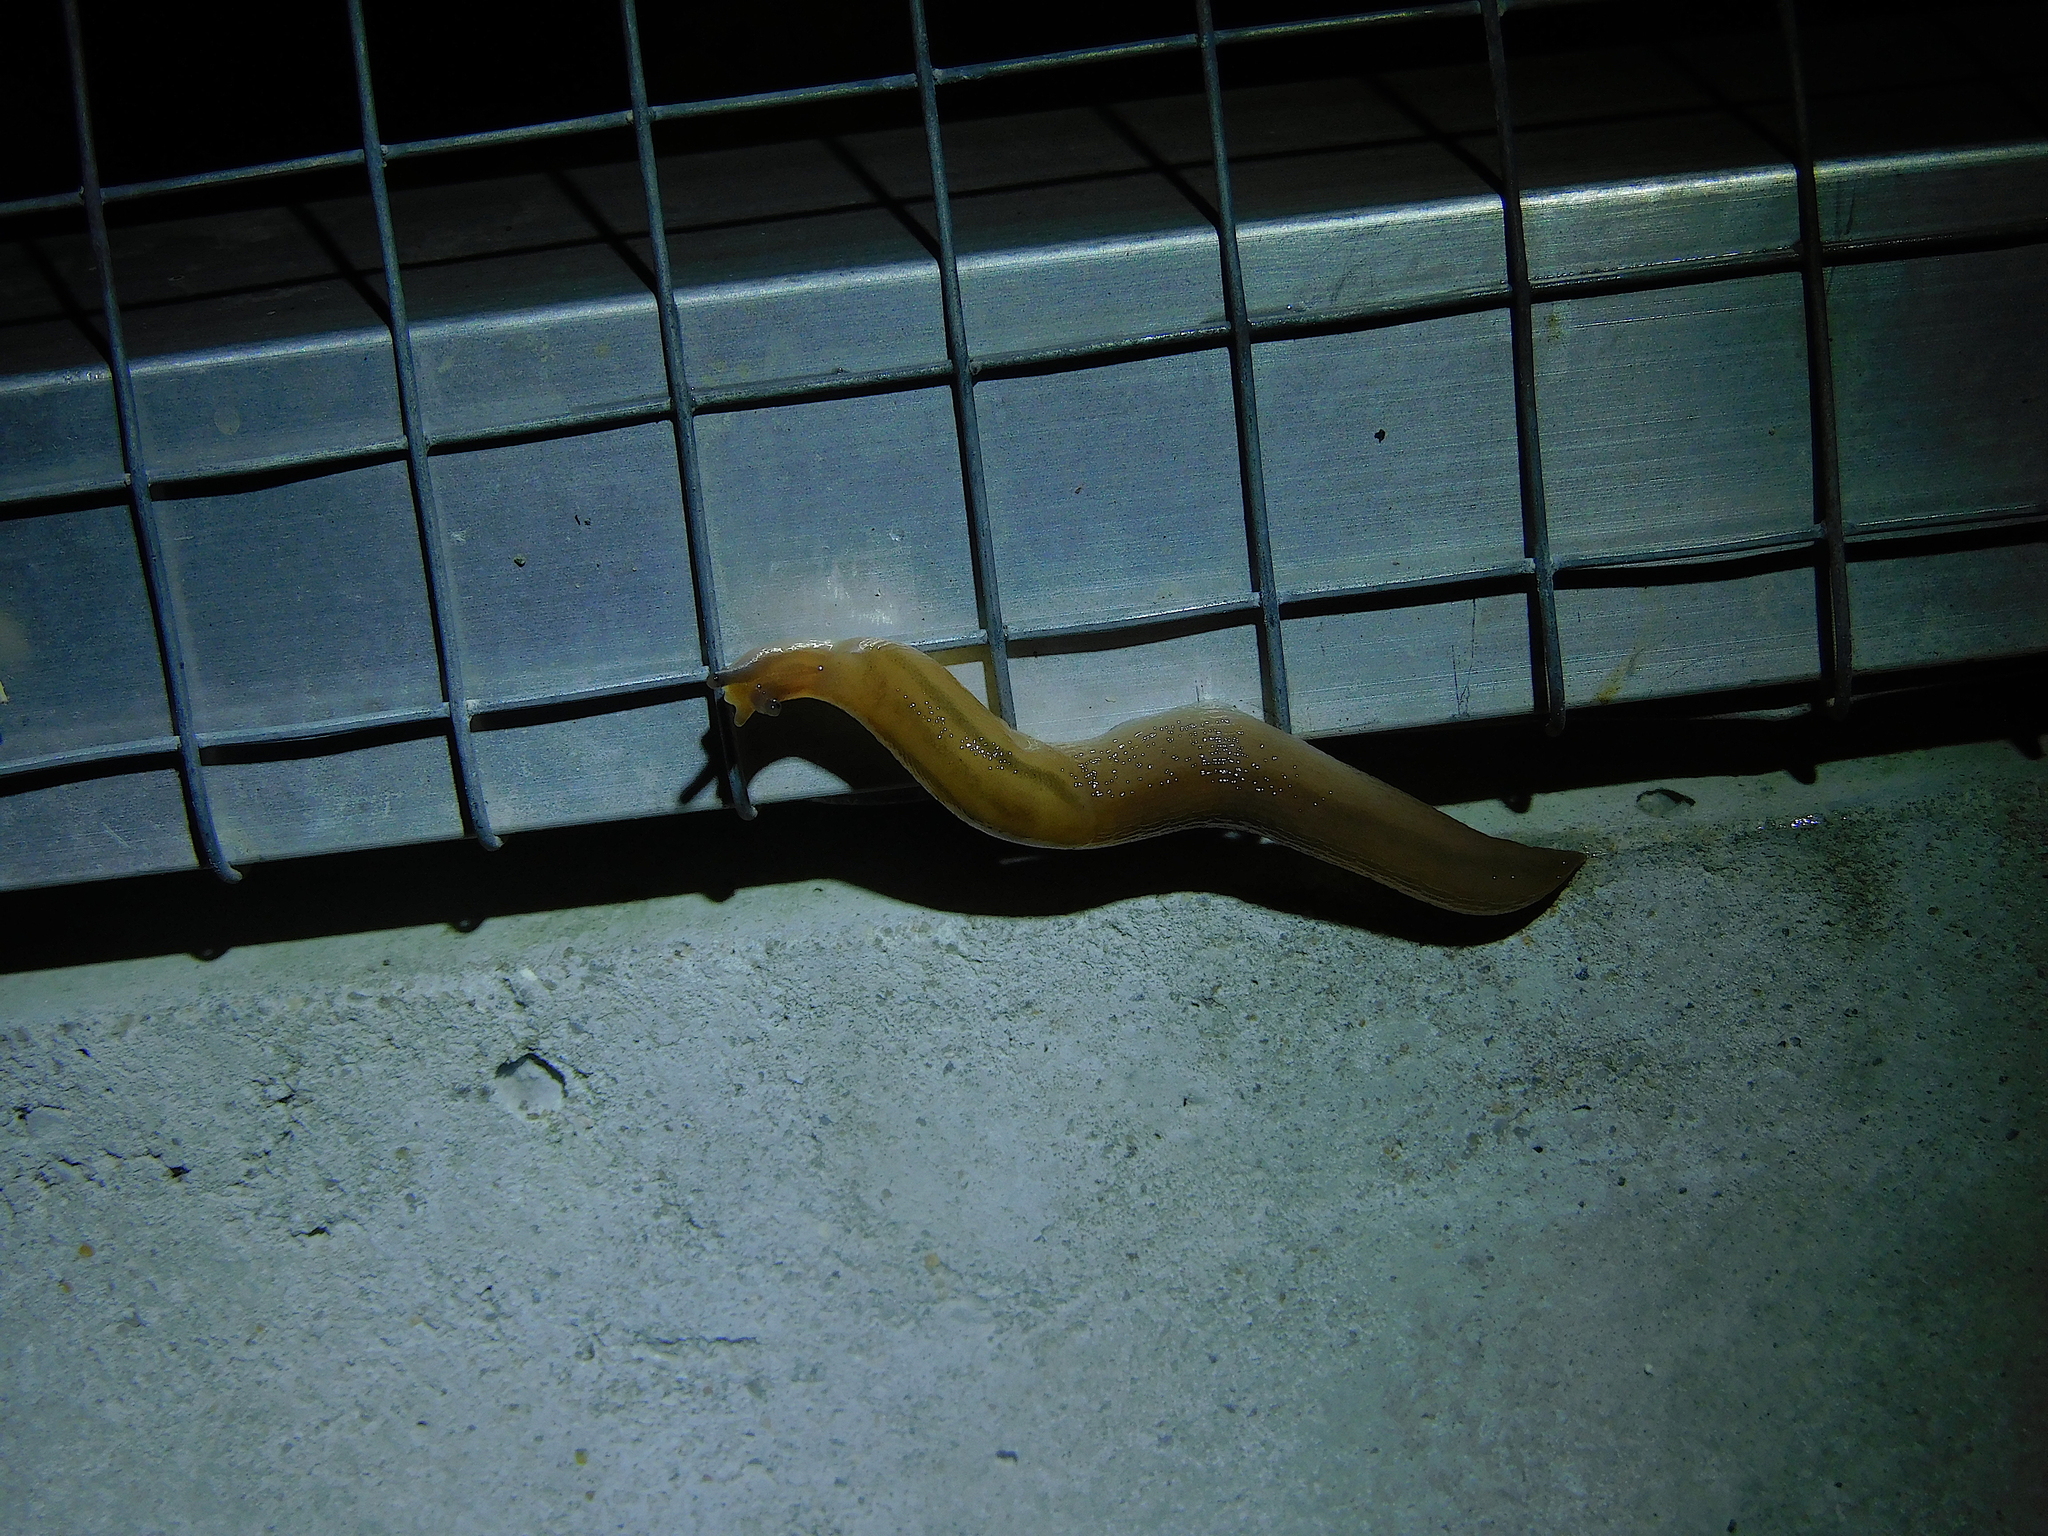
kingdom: Animalia
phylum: Mollusca
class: Gastropoda
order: Stylommatophora
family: Limacidae
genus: Ambigolimax
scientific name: Ambigolimax
